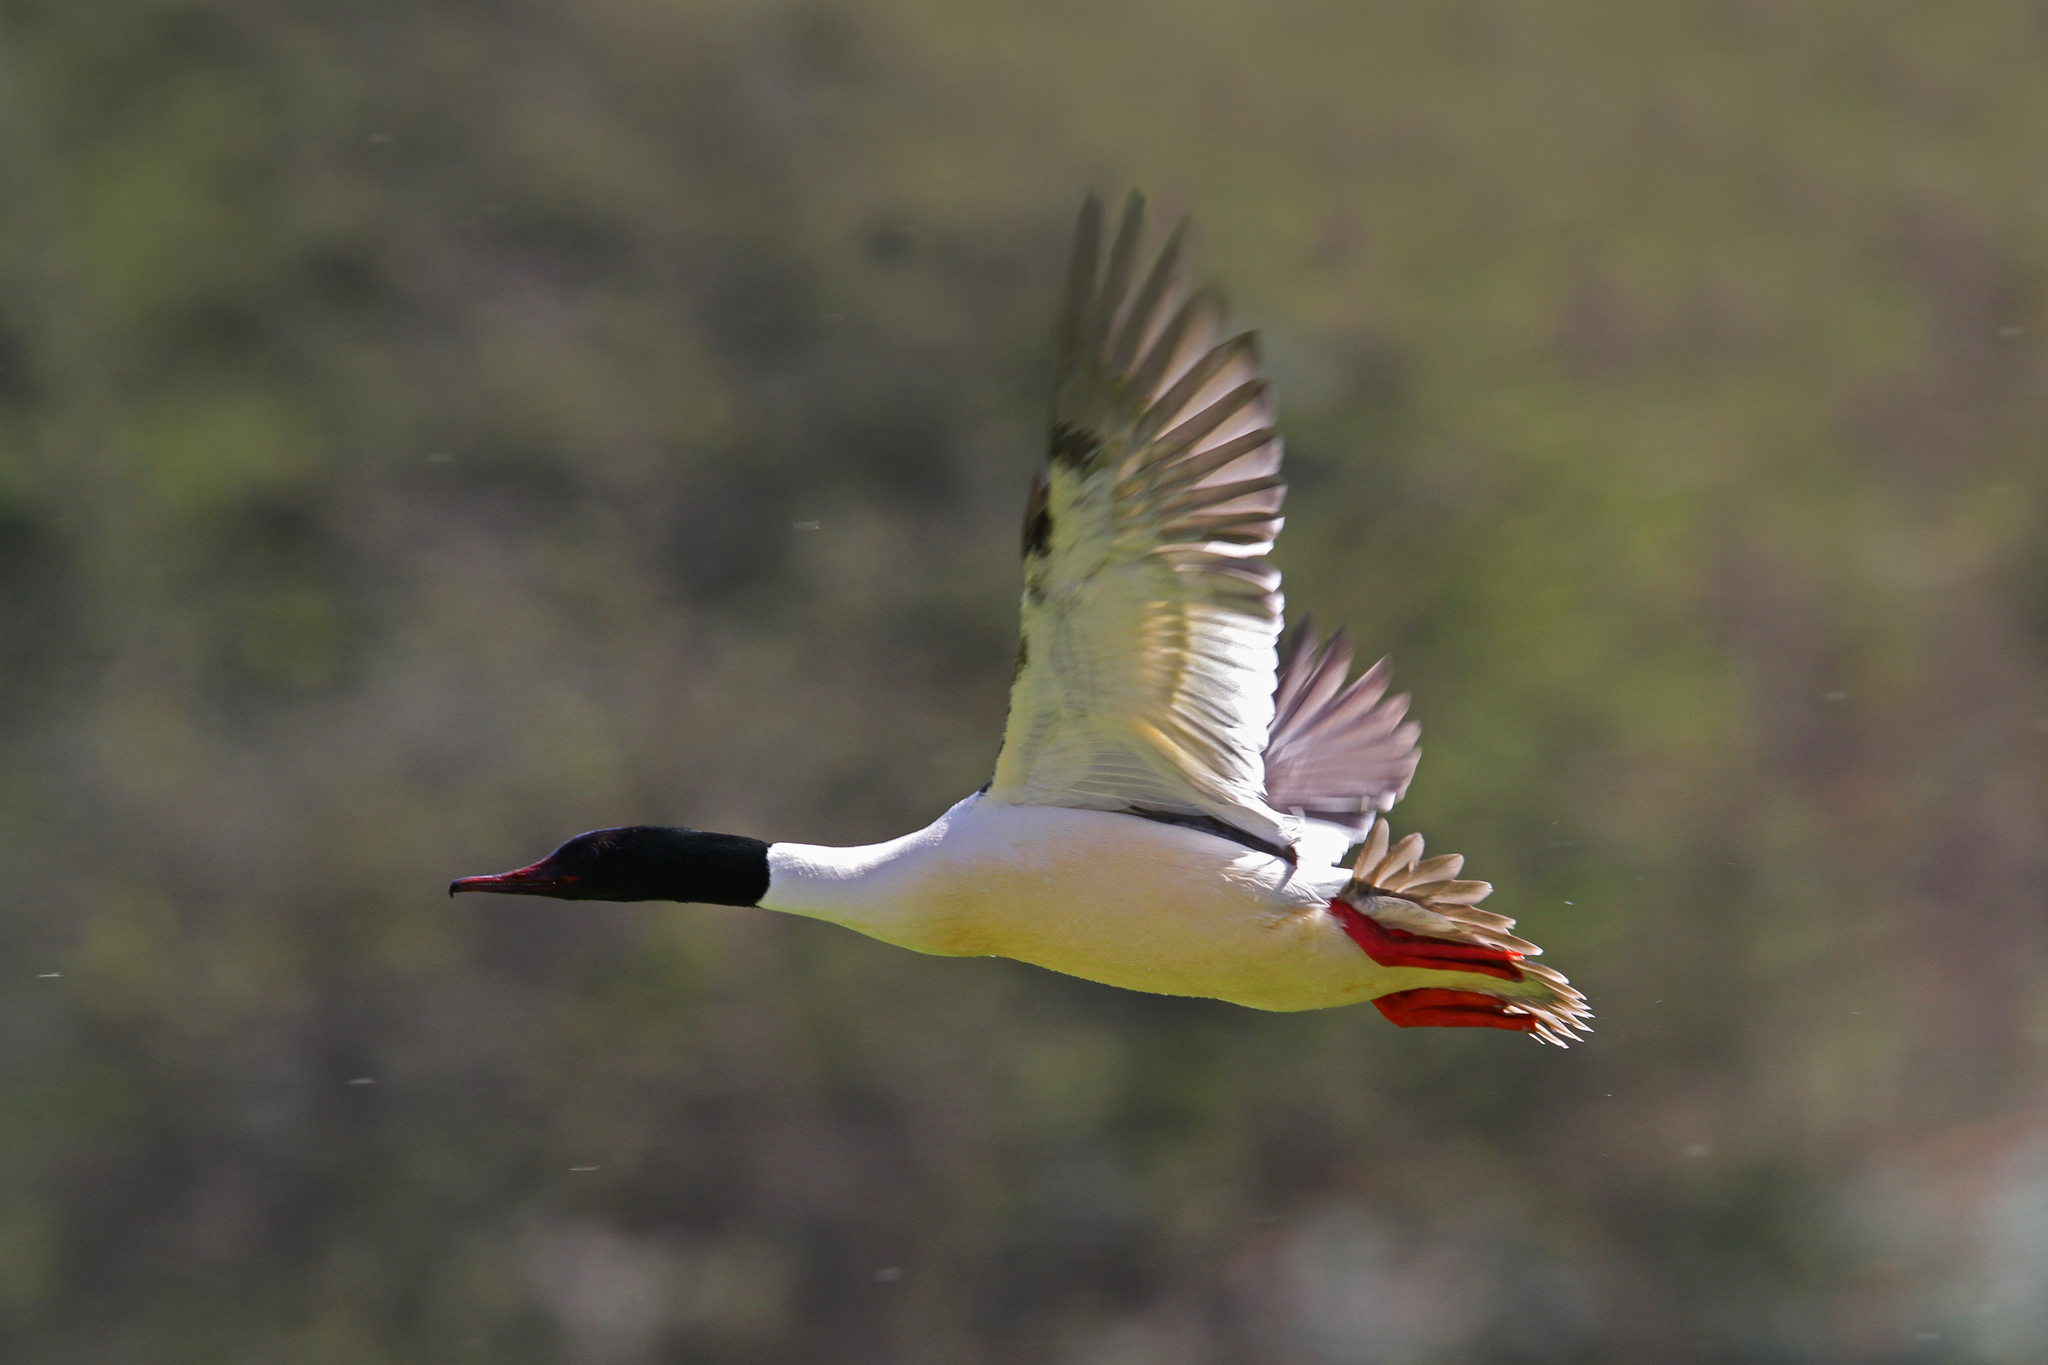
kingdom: Animalia
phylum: Chordata
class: Aves
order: Anseriformes
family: Anatidae
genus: Mergus
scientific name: Mergus merganser
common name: Common merganser
